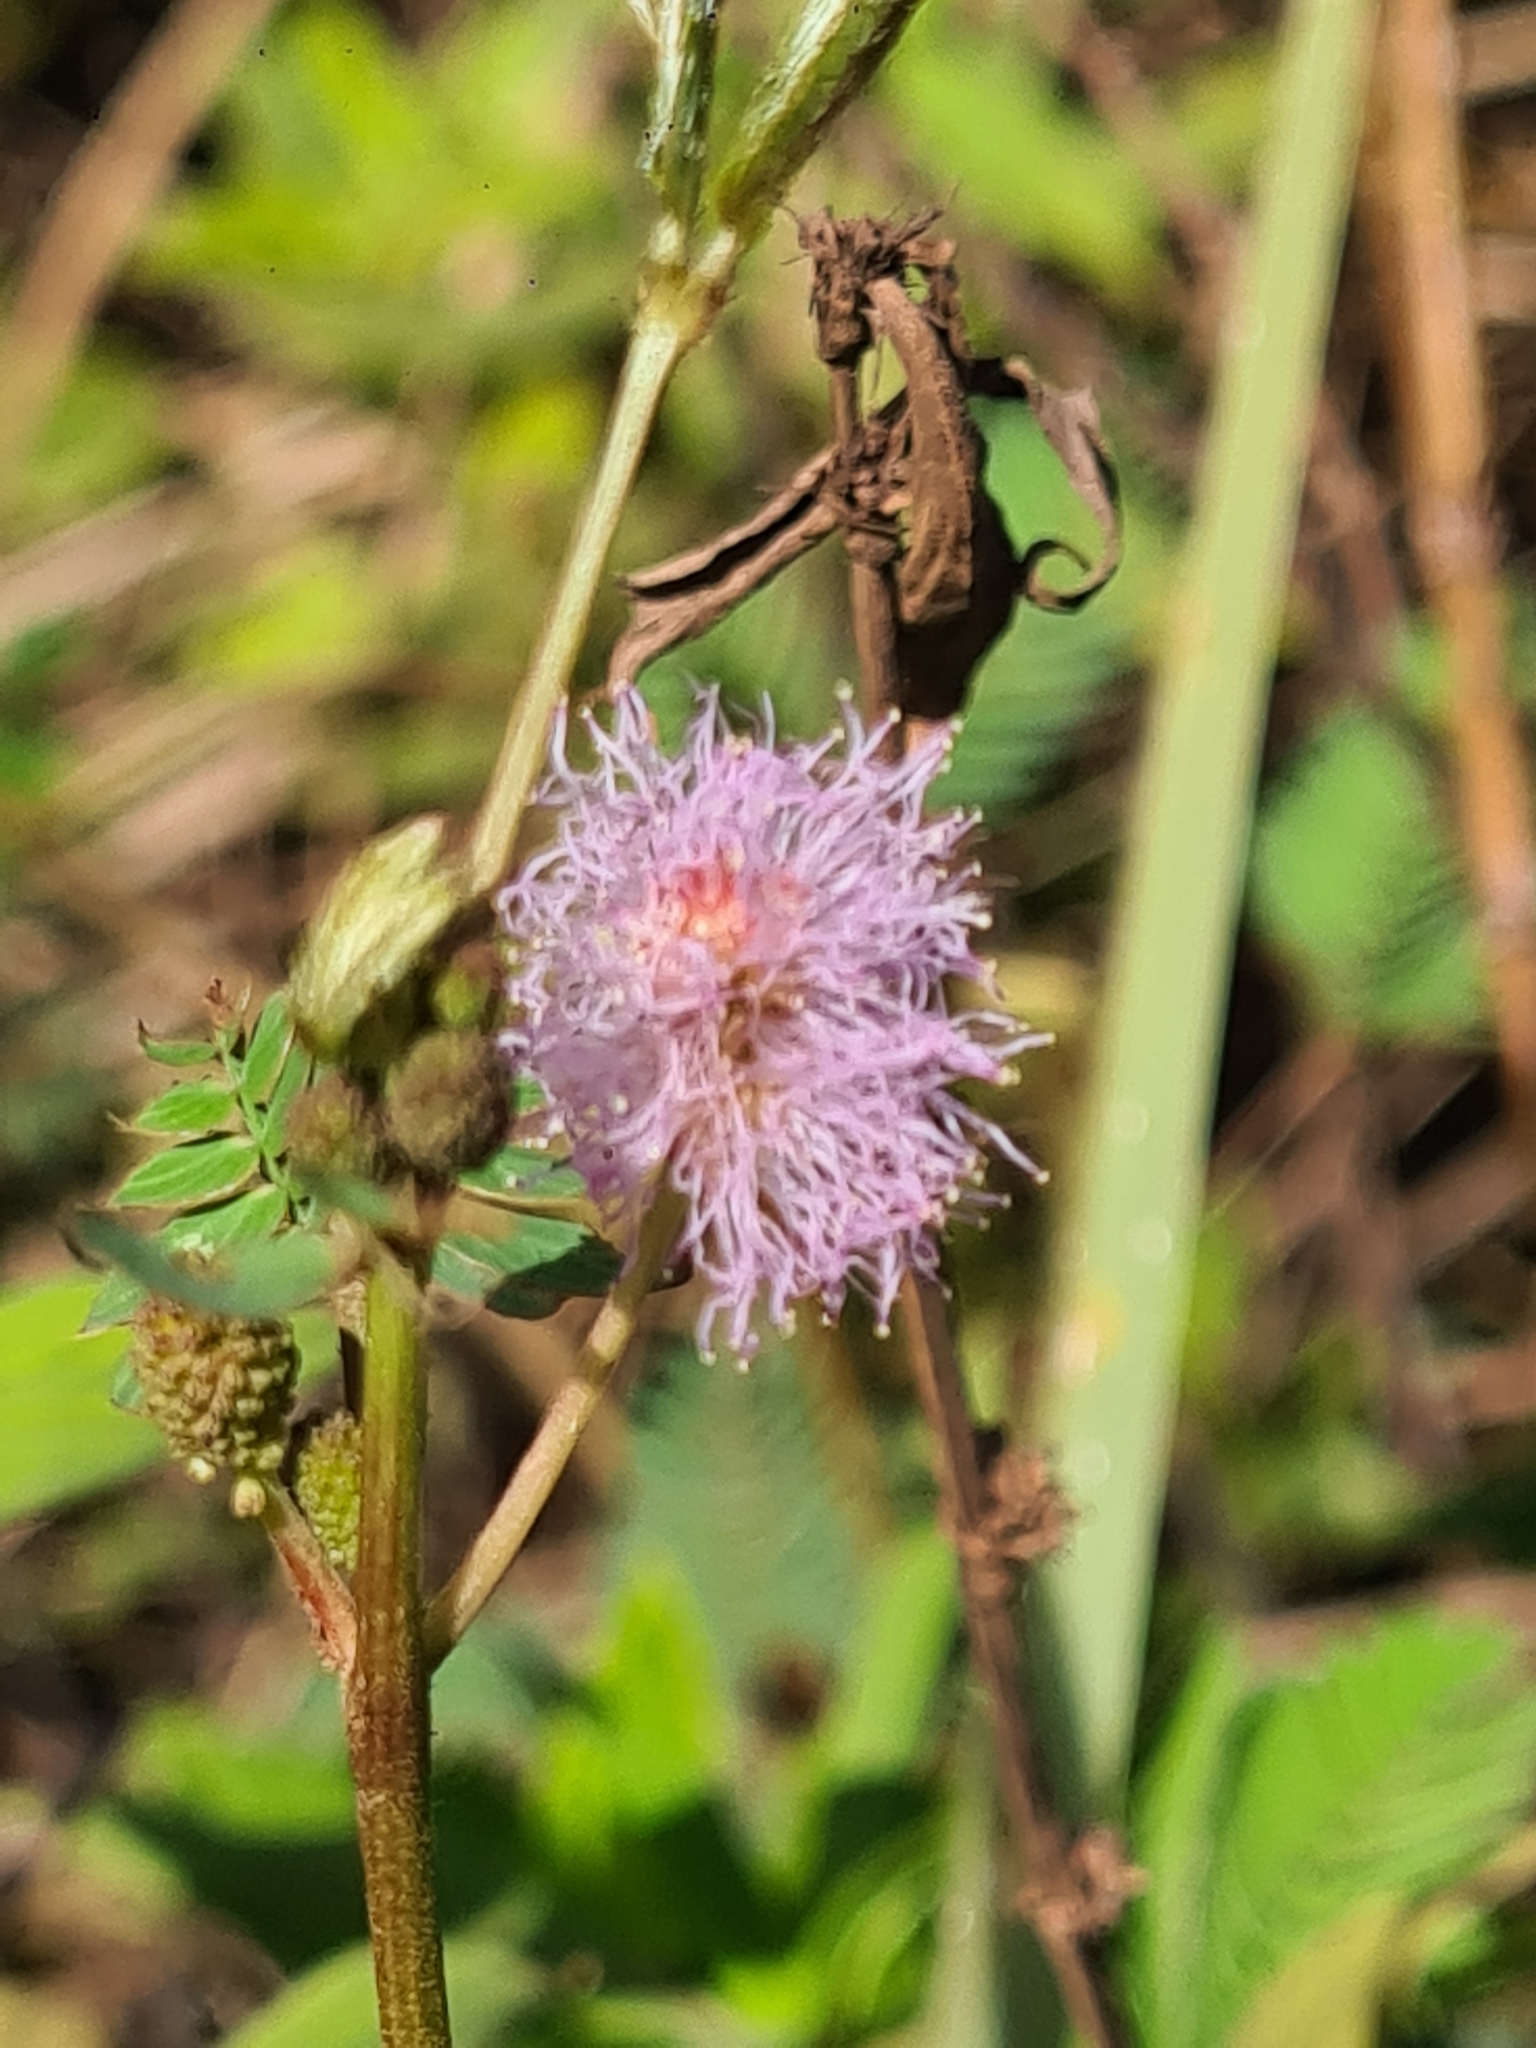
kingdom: Plantae
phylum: Tracheophyta
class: Magnoliopsida
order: Fabales
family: Fabaceae
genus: Mimosa
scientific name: Mimosa pudica
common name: Sensitive plant
